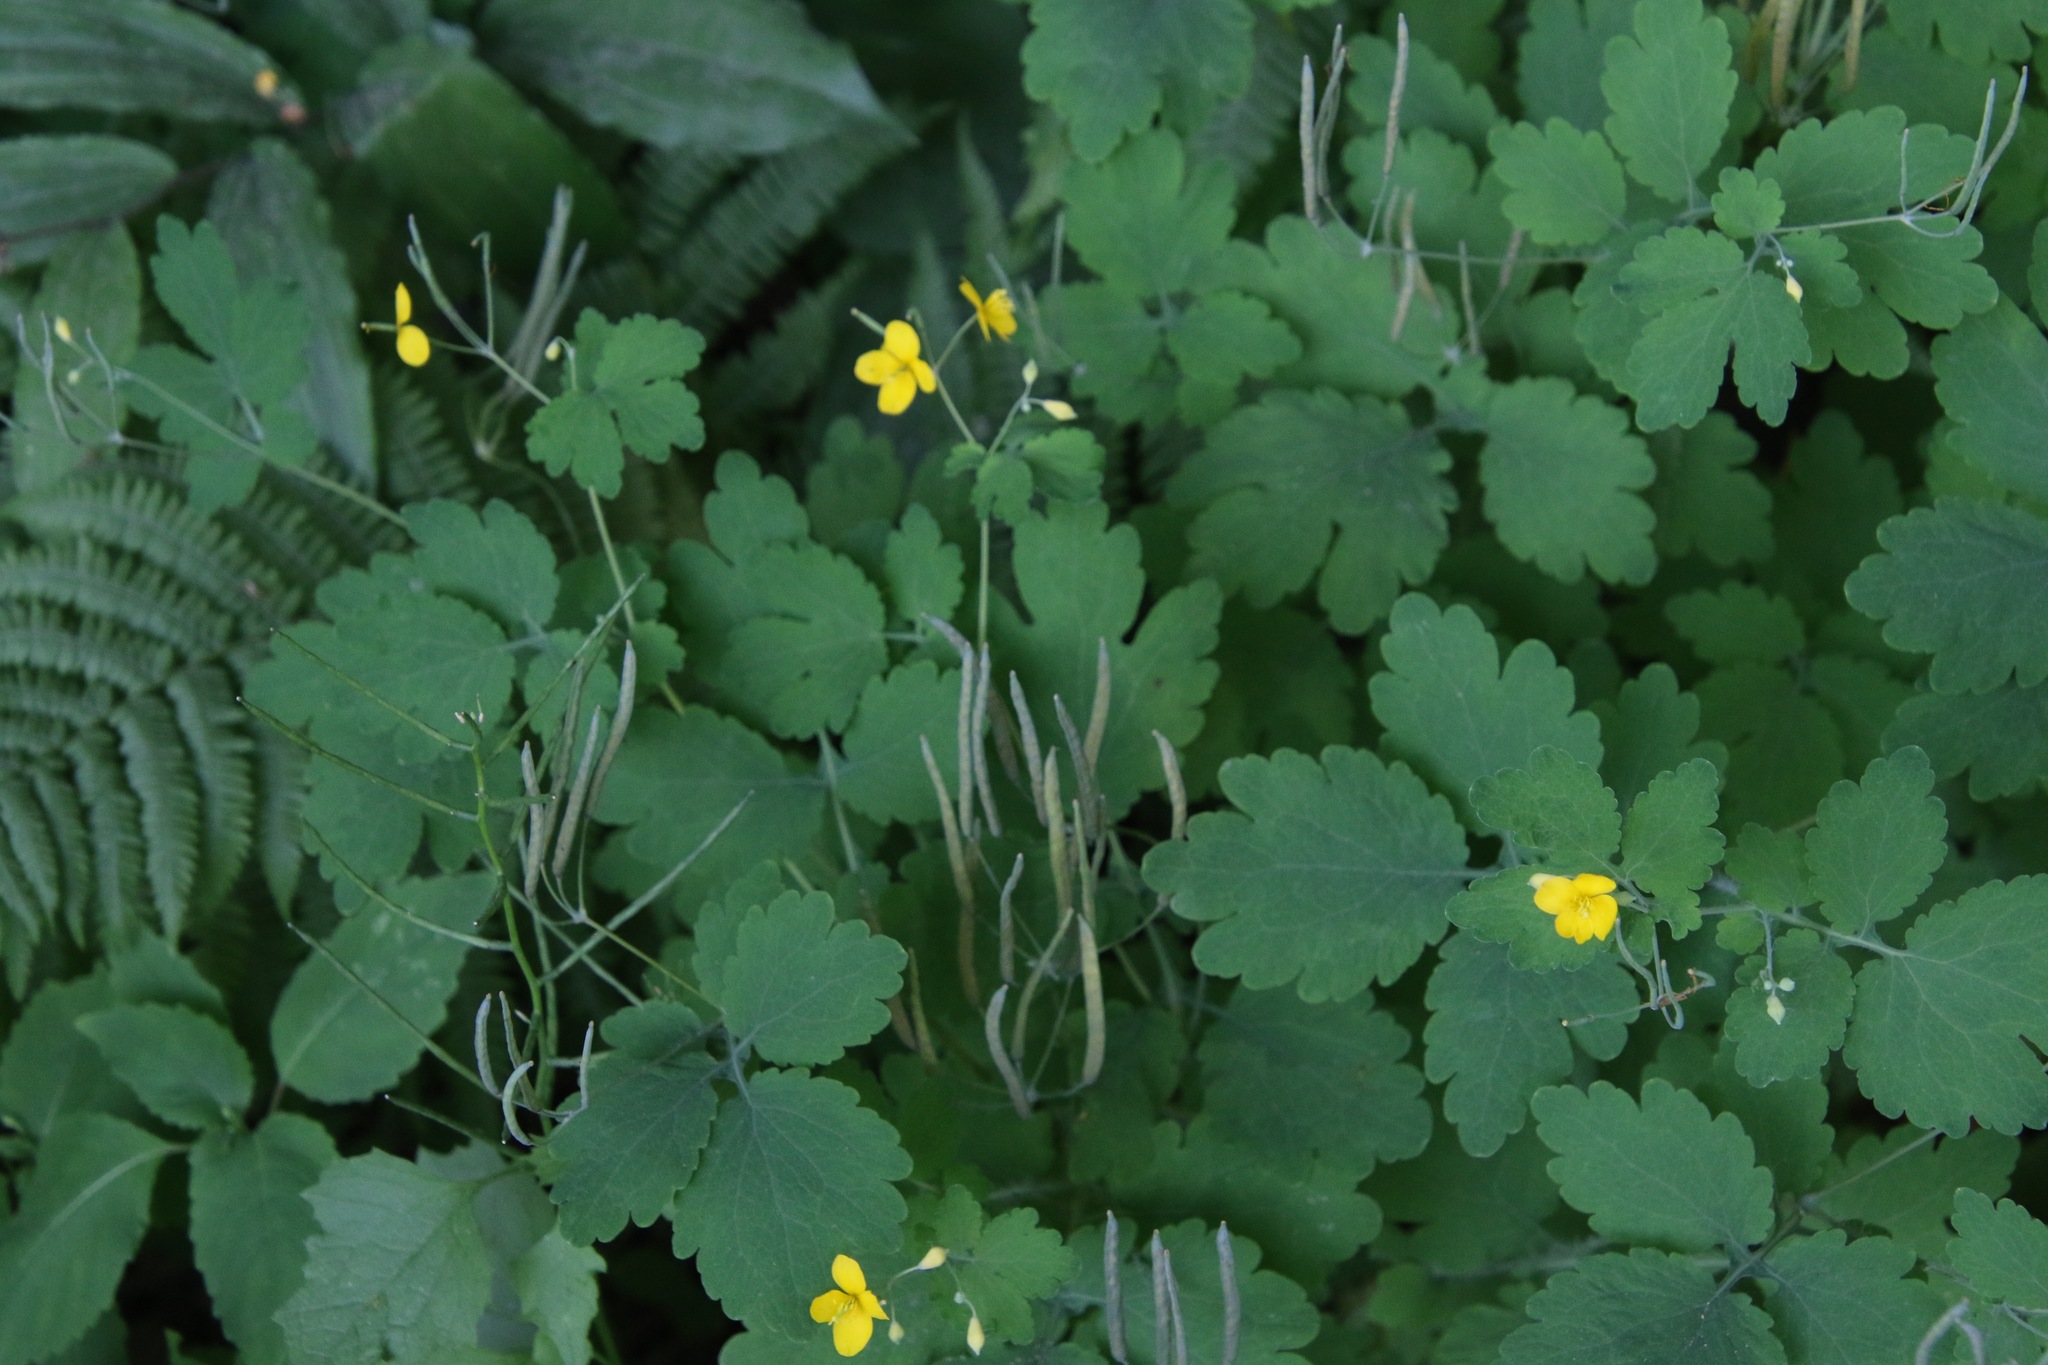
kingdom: Plantae
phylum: Tracheophyta
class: Magnoliopsida
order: Ranunculales
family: Papaveraceae
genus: Chelidonium
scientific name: Chelidonium majus
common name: Greater celandine
